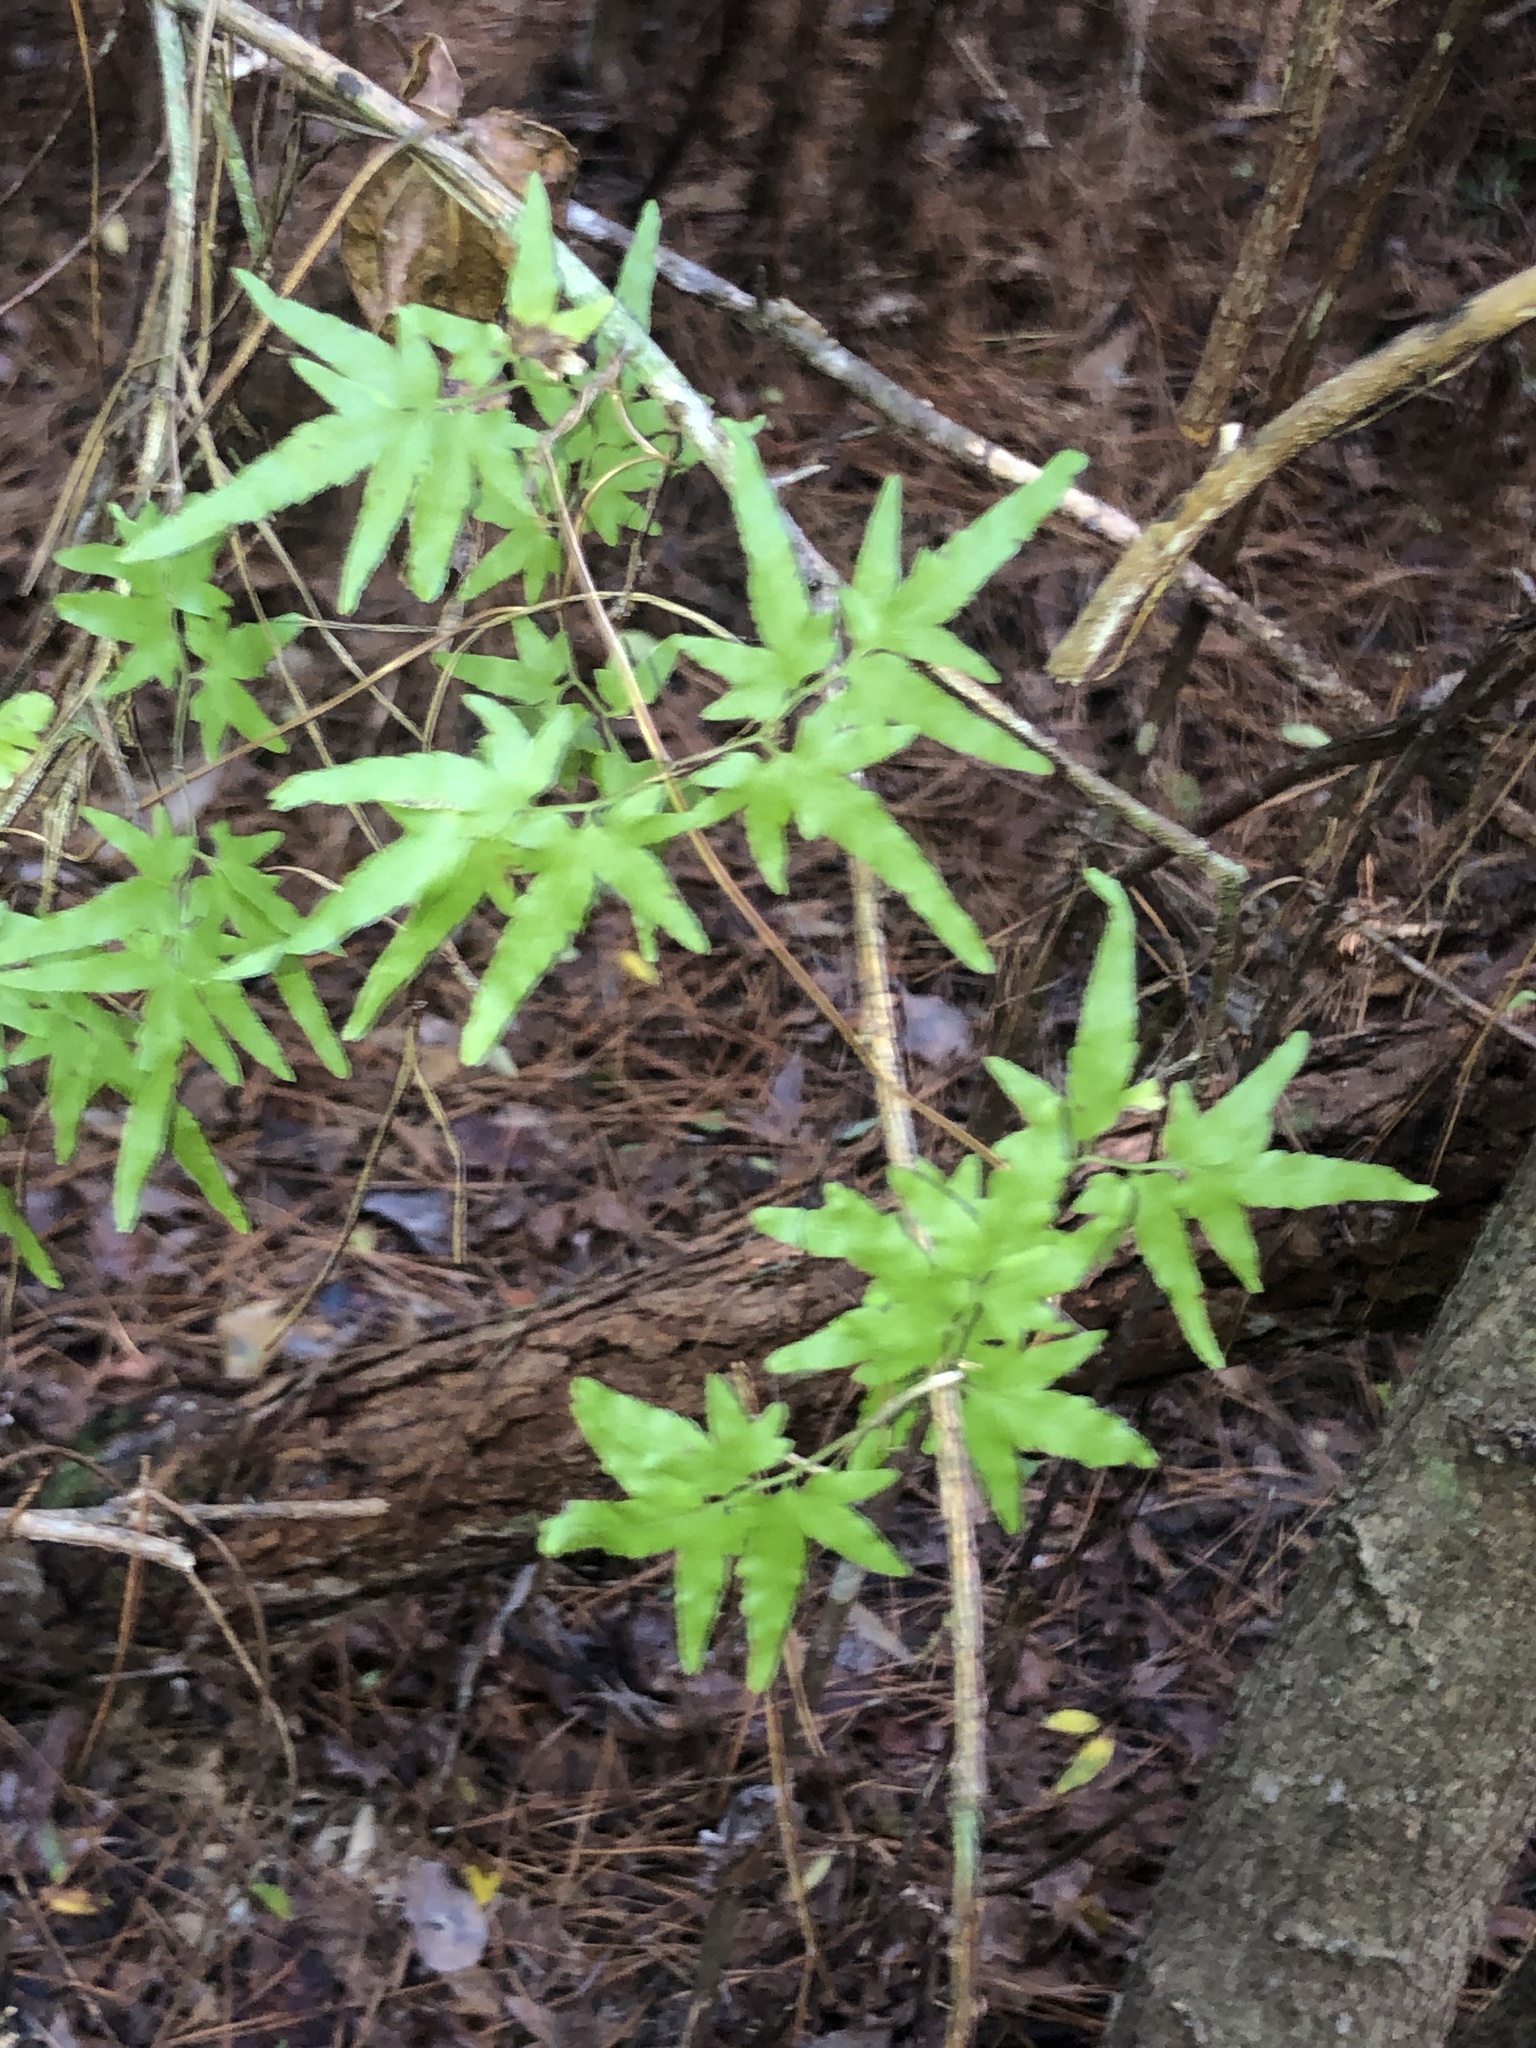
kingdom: Plantae
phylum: Tracheophyta
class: Polypodiopsida
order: Schizaeales
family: Lygodiaceae
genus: Lygodium
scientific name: Lygodium japonicum
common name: Japanese climbing fern
